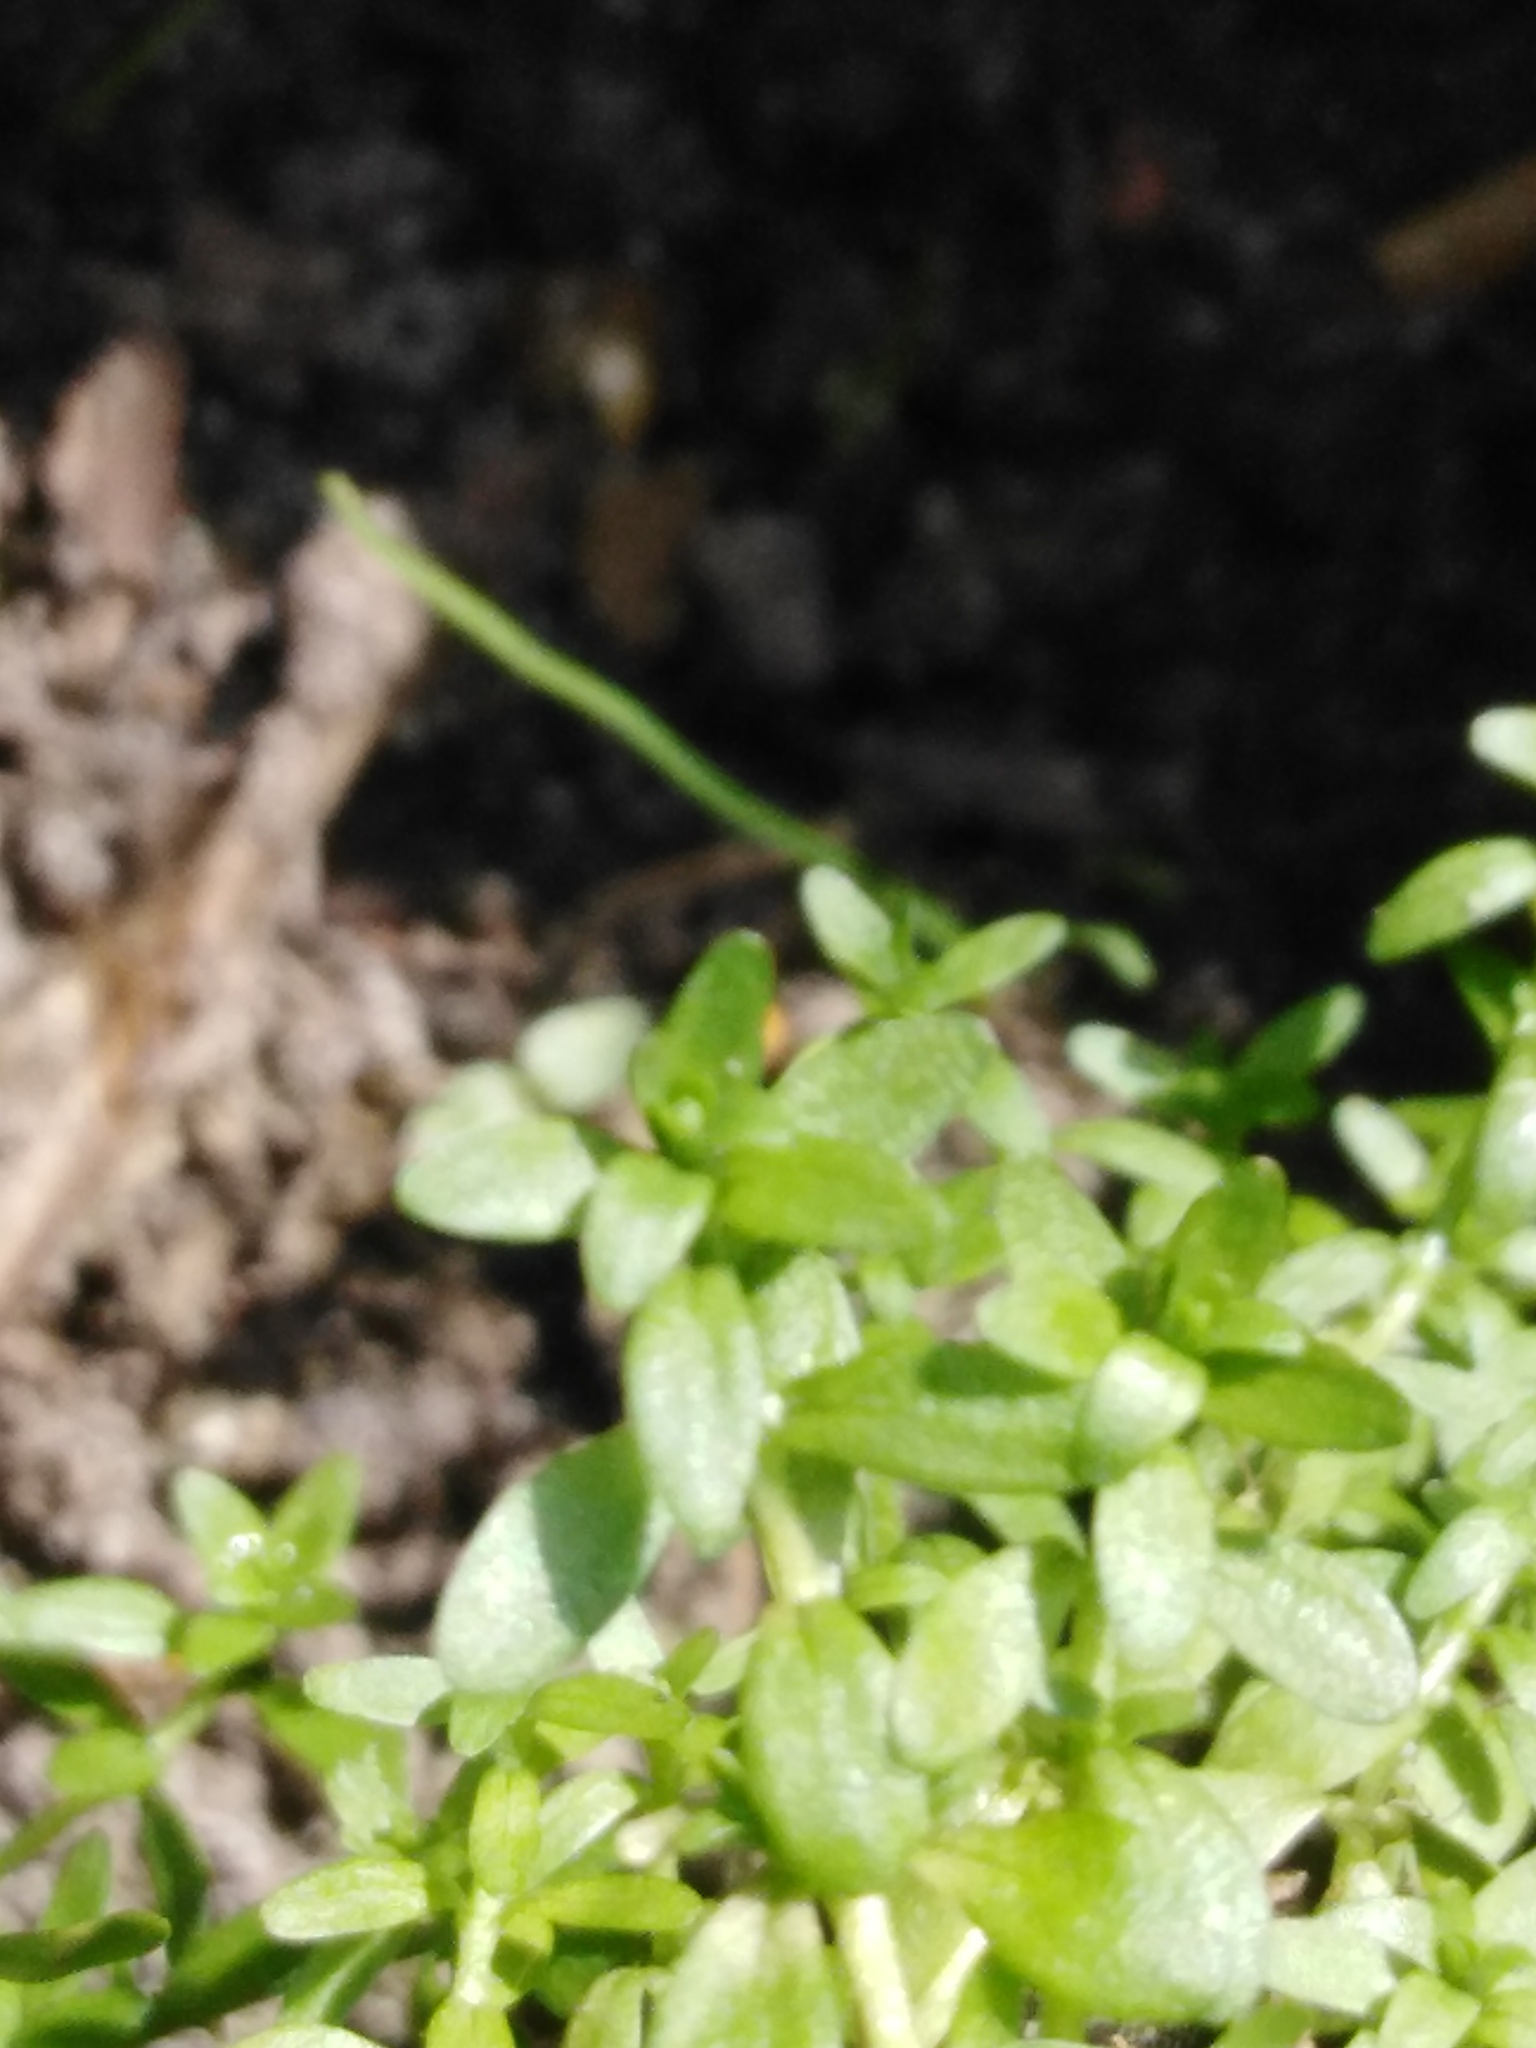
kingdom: Plantae
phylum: Tracheophyta
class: Magnoliopsida
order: Lamiales
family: Plantaginaceae
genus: Callitriche
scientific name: Callitriche cophocarpa
